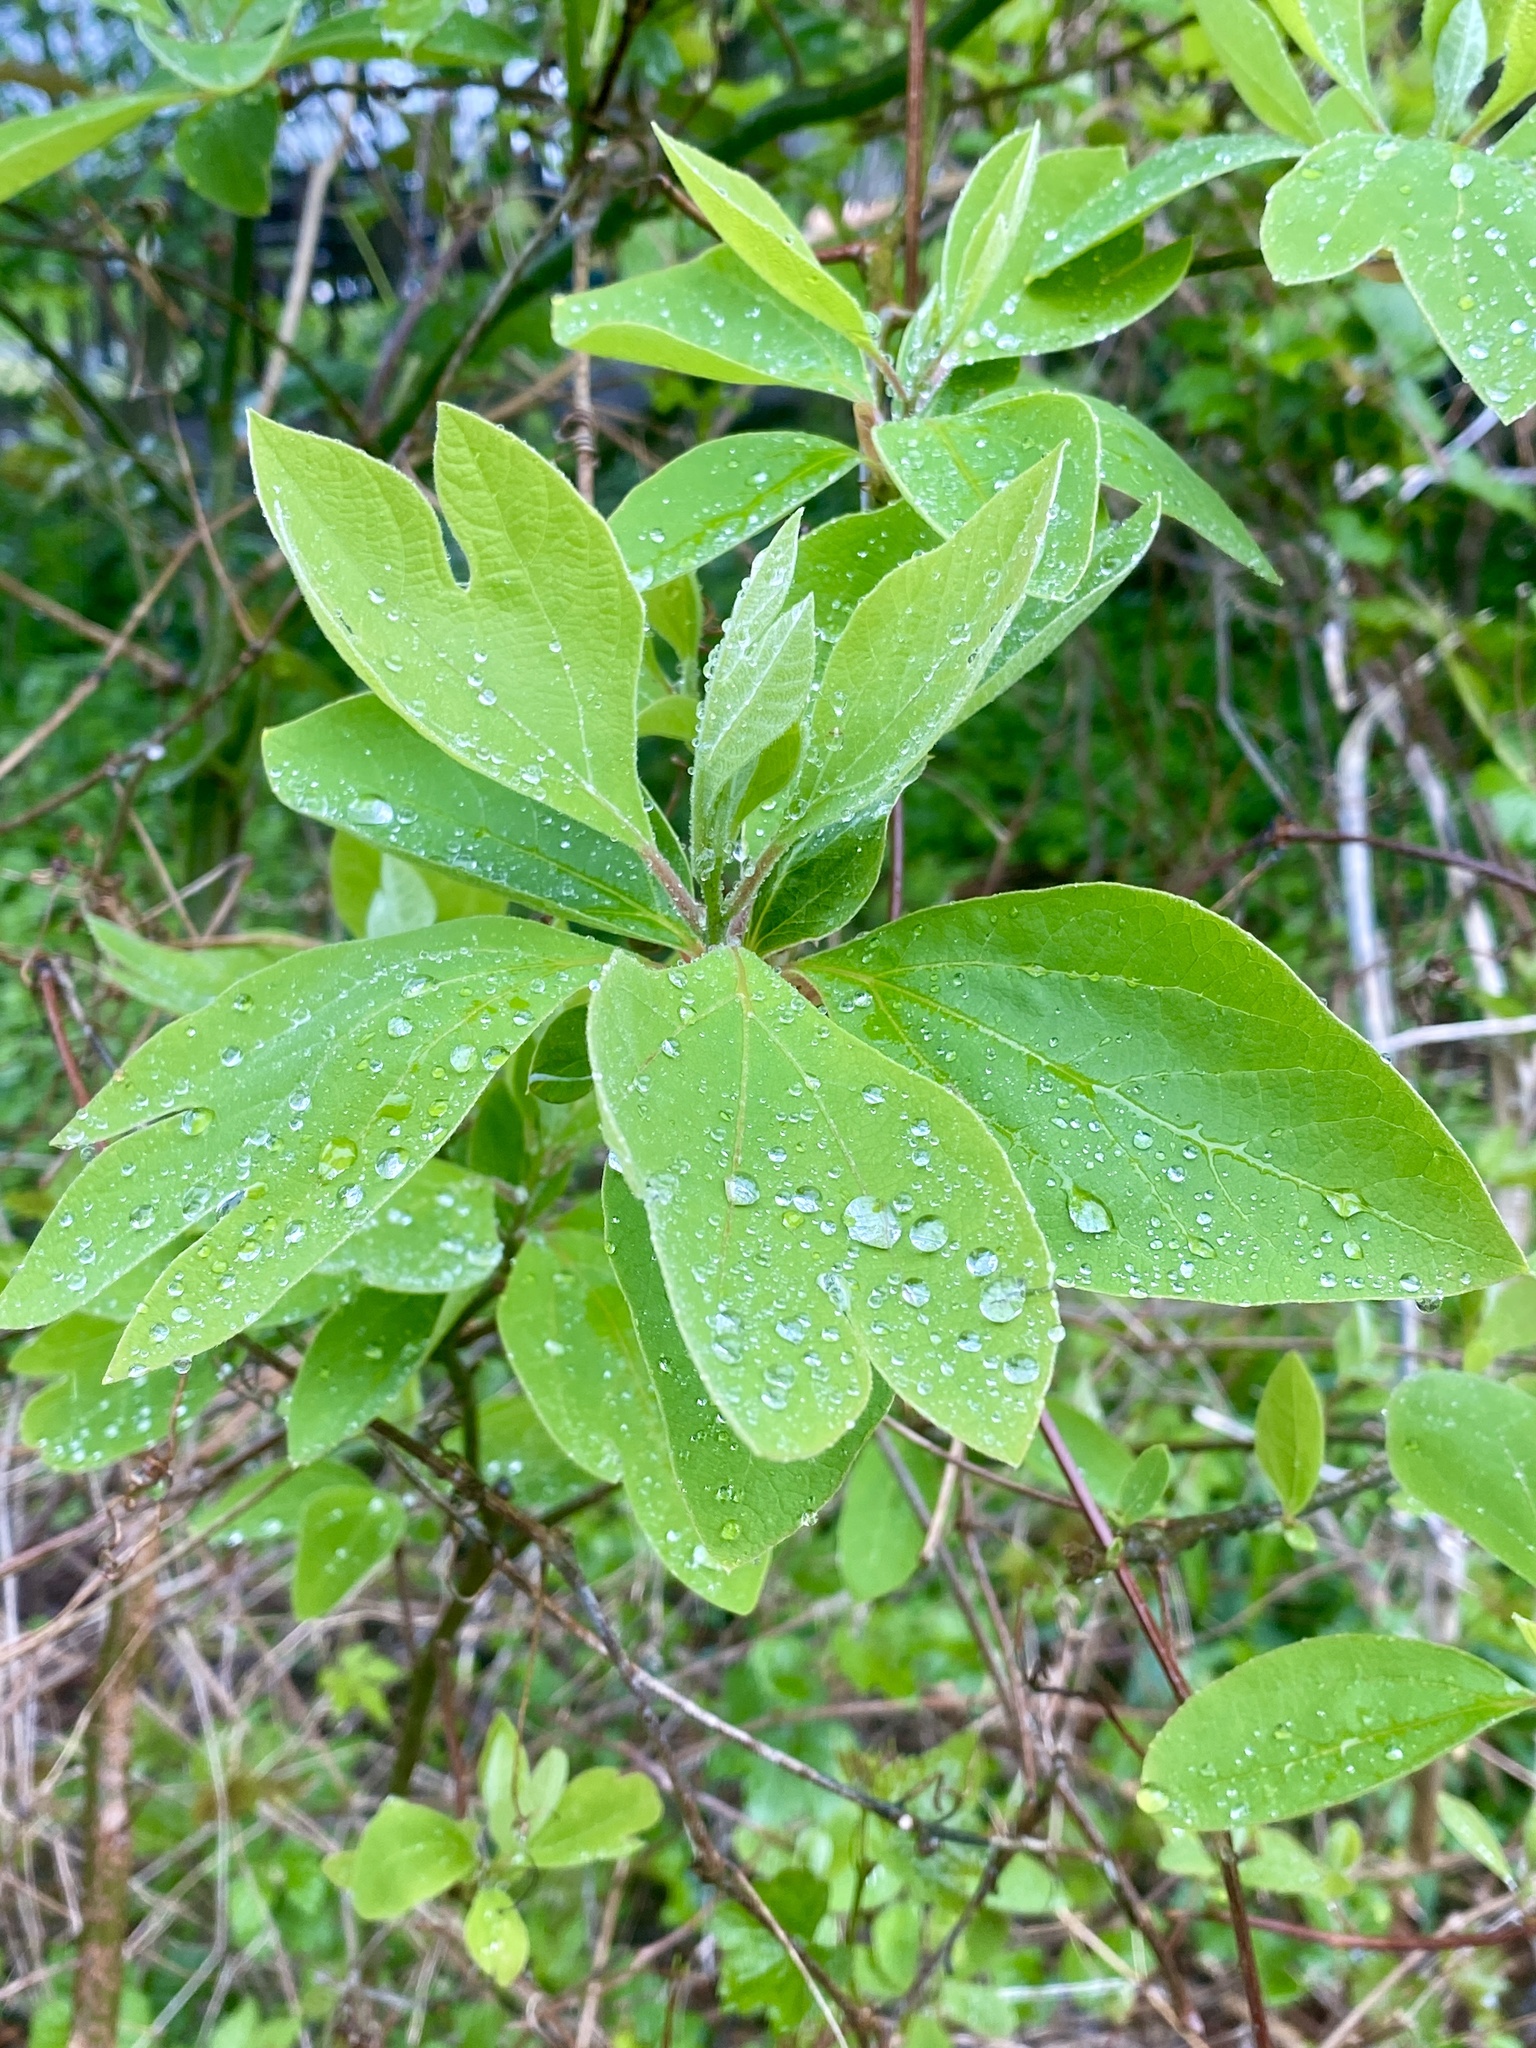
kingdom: Plantae
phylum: Tracheophyta
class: Magnoliopsida
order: Laurales
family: Lauraceae
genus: Sassafras
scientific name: Sassafras albidum
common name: Sassafras
